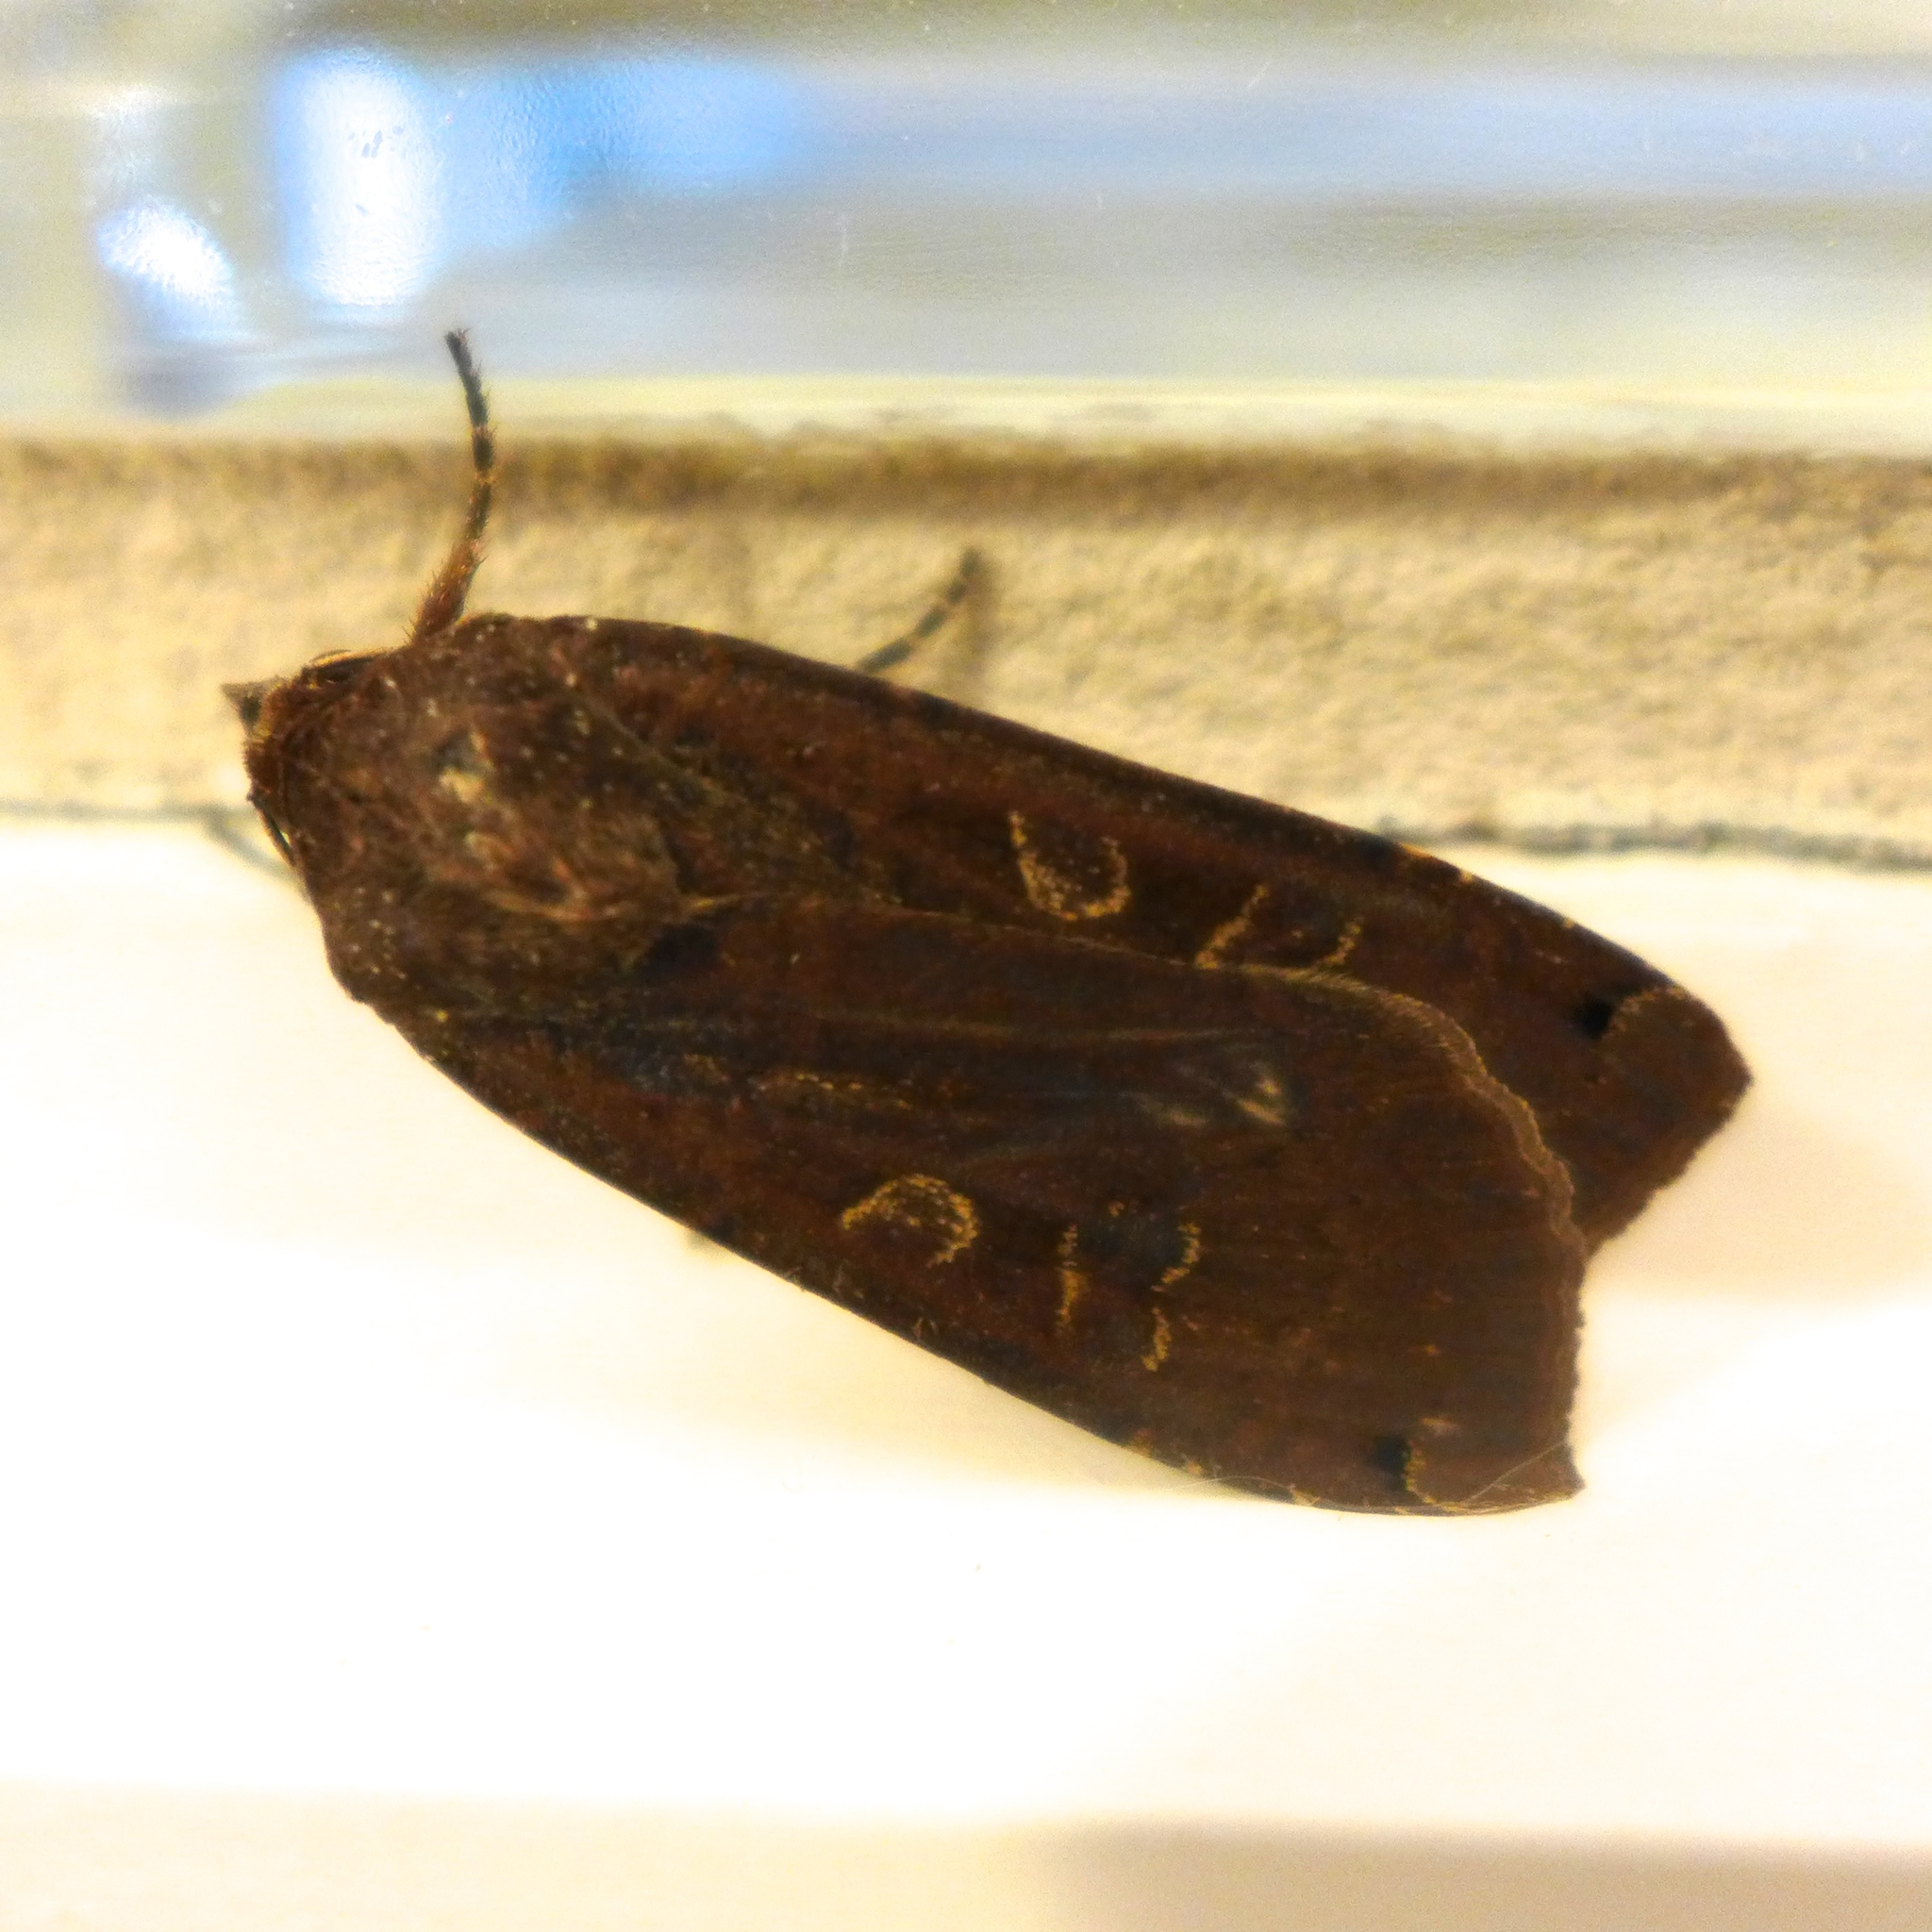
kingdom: Animalia
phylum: Arthropoda
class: Insecta
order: Lepidoptera
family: Noctuidae
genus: Noctua
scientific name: Noctua pronuba
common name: Large yellow underwing
